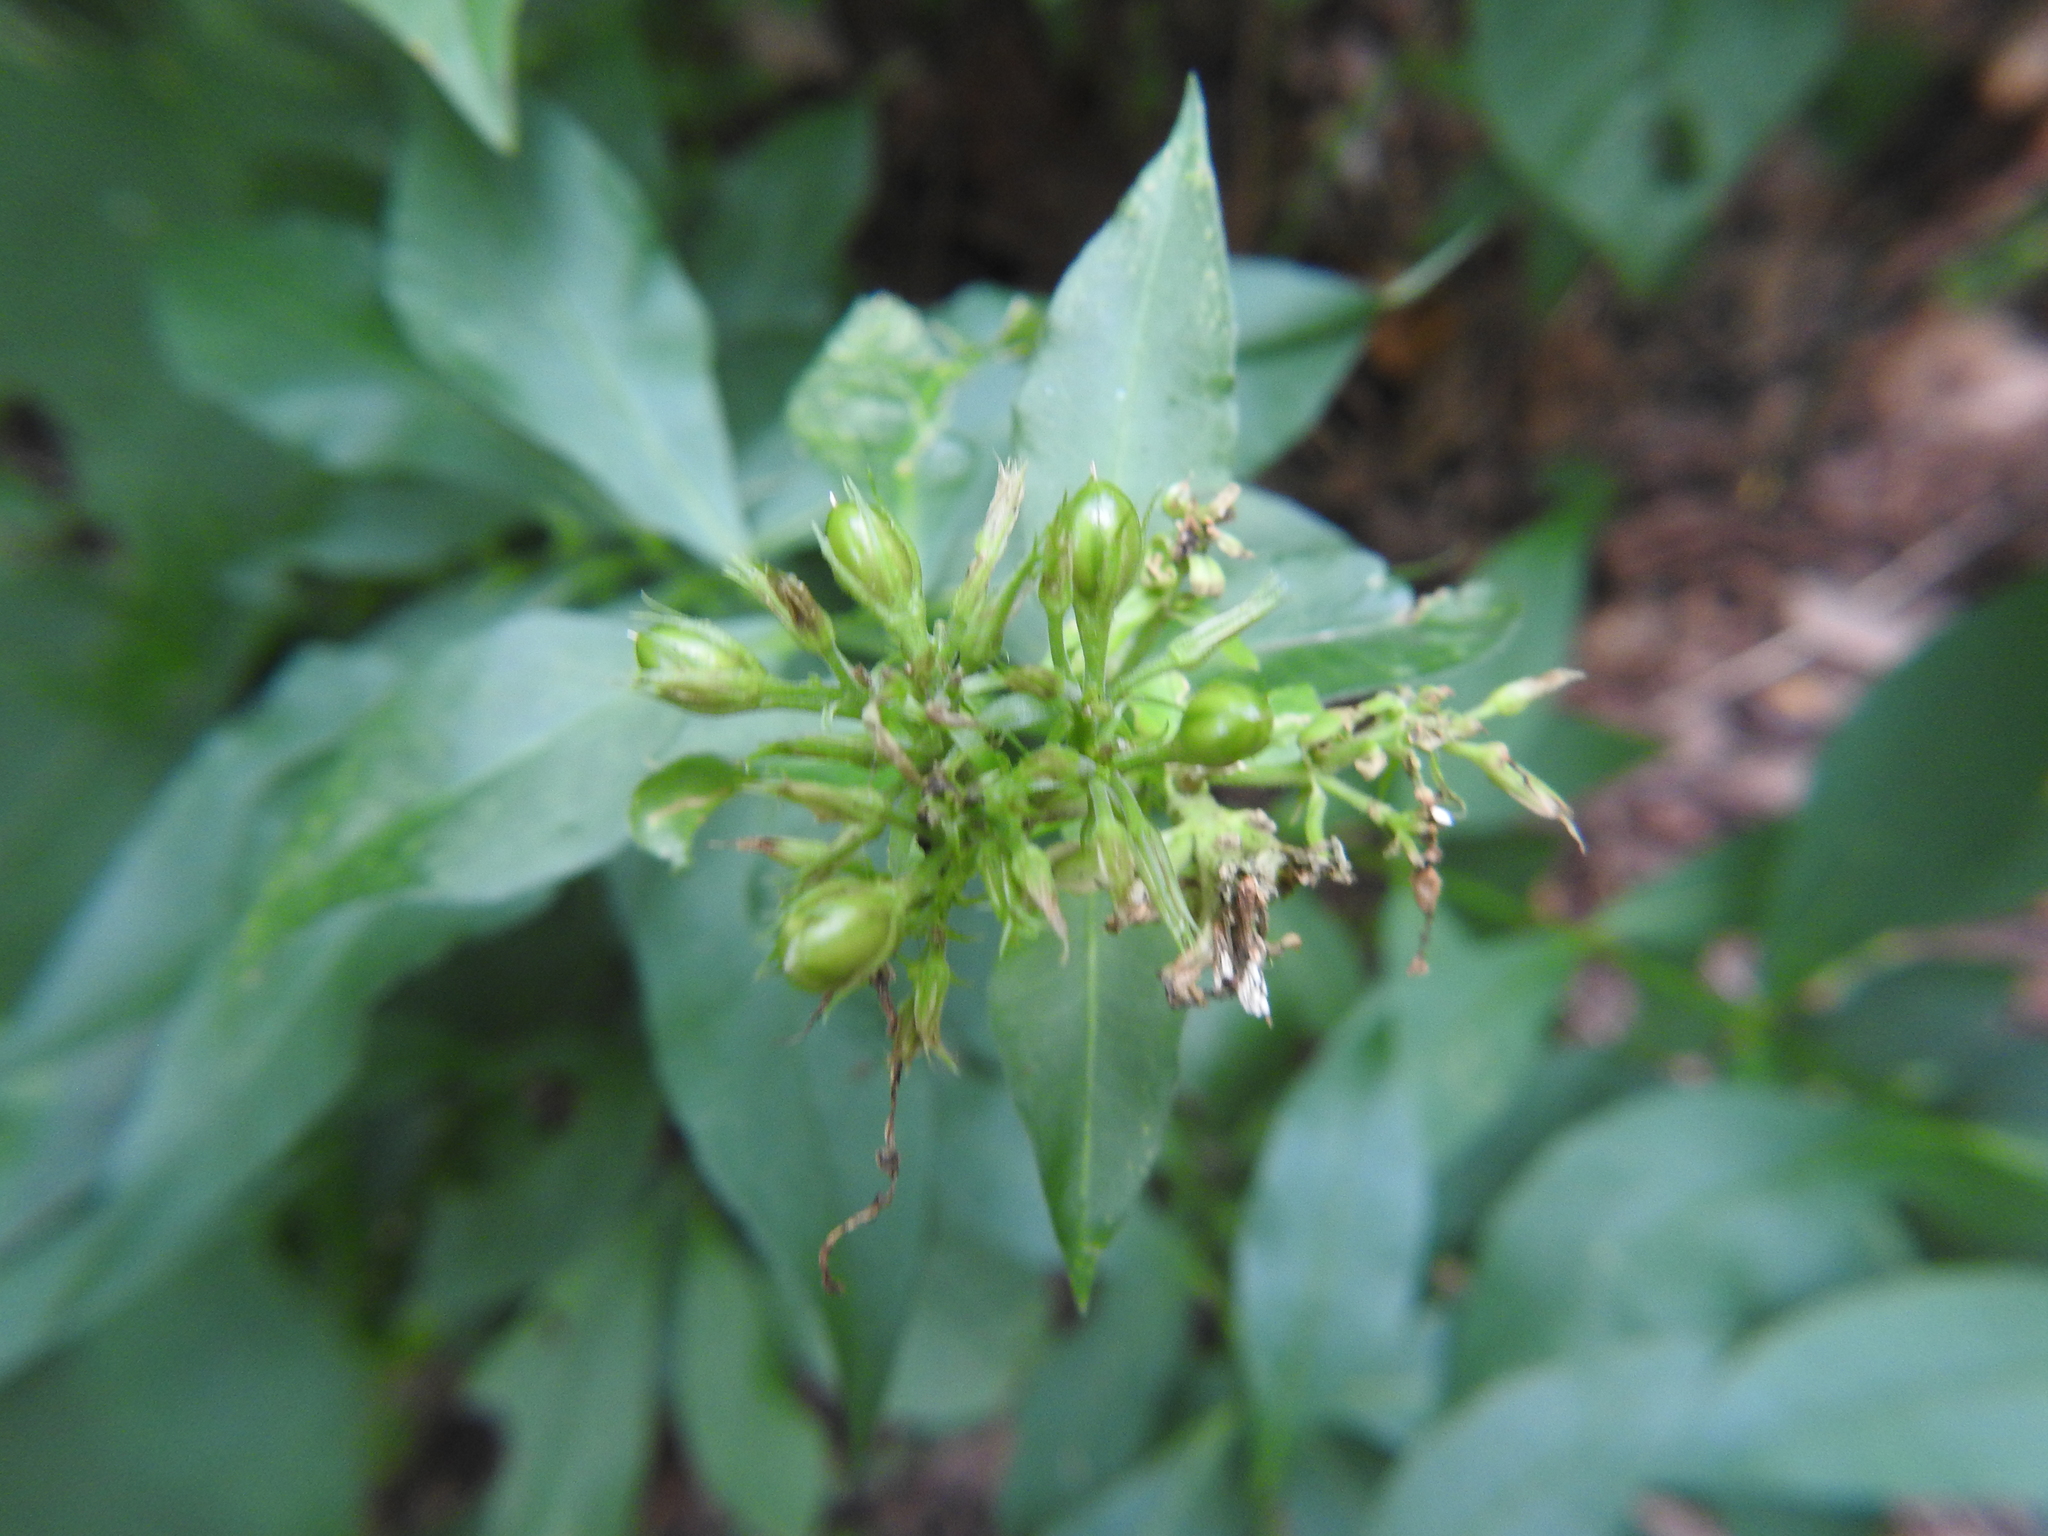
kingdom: Plantae
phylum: Tracheophyta
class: Magnoliopsida
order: Ericales
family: Polemoniaceae
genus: Phlox
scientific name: Phlox paniculata
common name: Fall phlox
